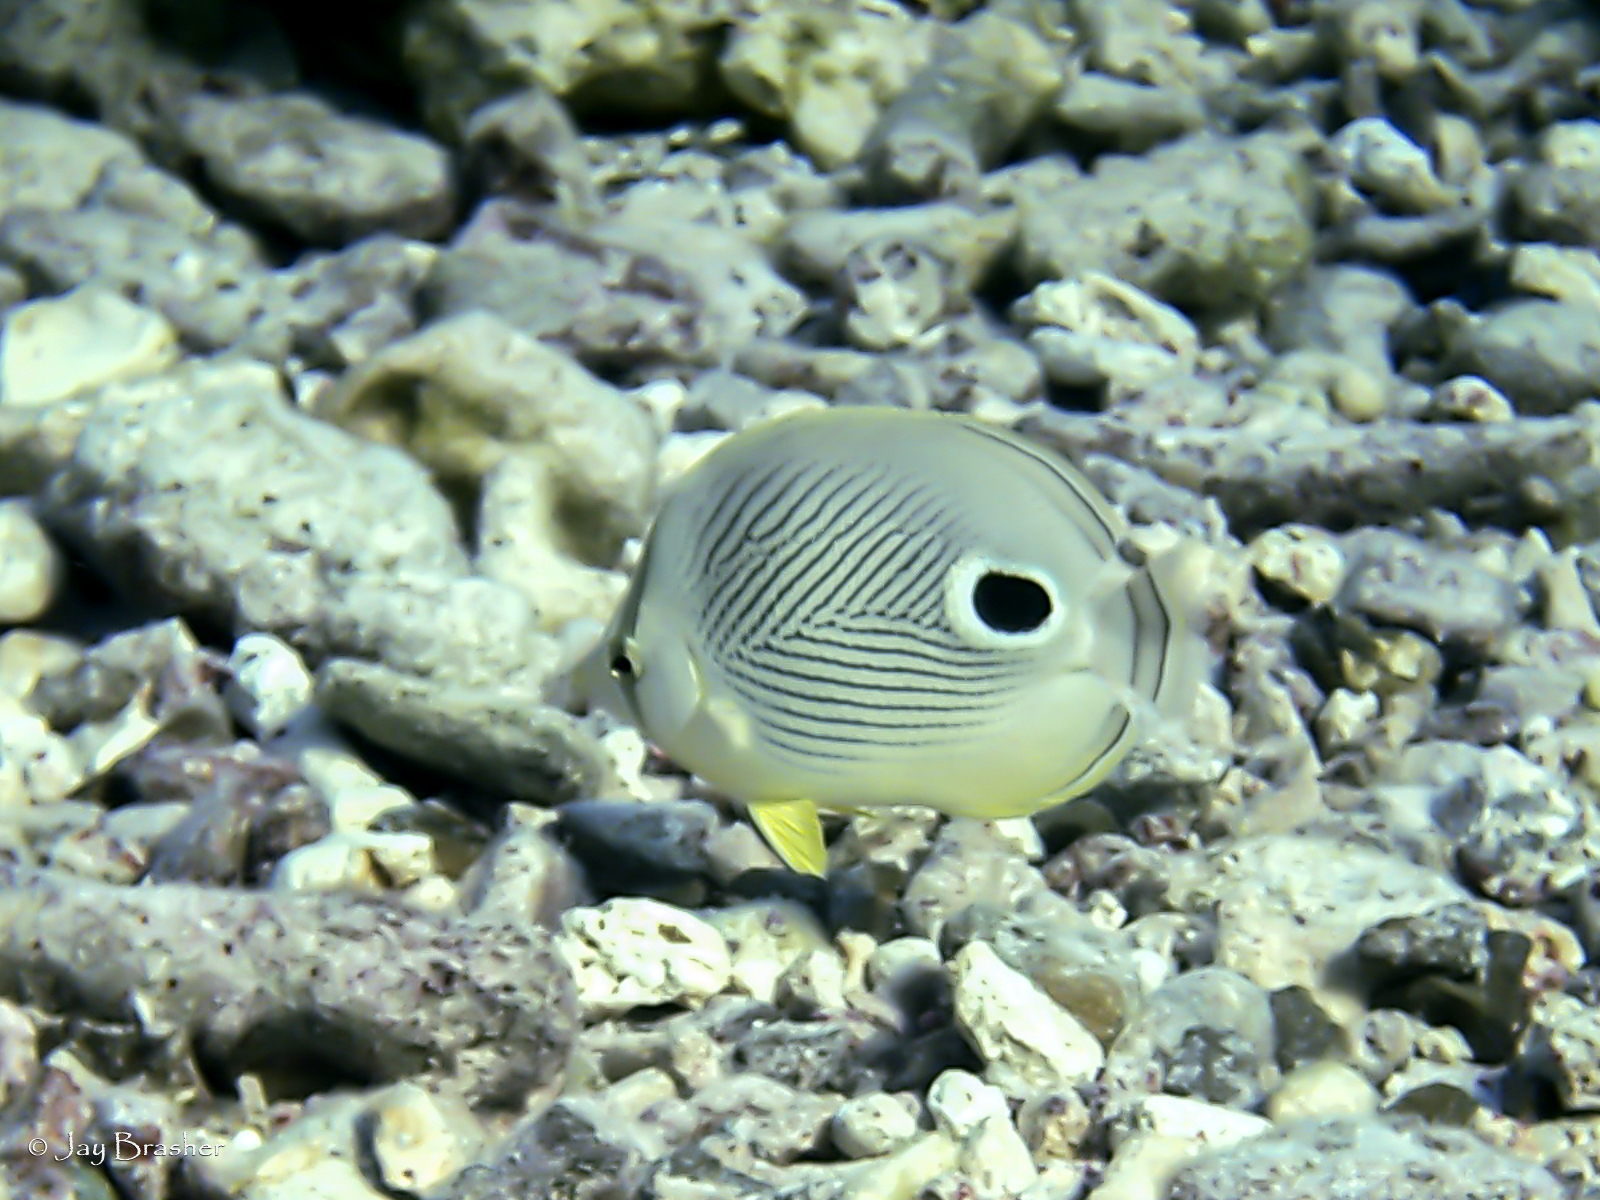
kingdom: Animalia
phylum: Chordata
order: Perciformes
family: Chaetodontidae
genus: Chaetodon
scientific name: Chaetodon capistratus
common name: Kete
